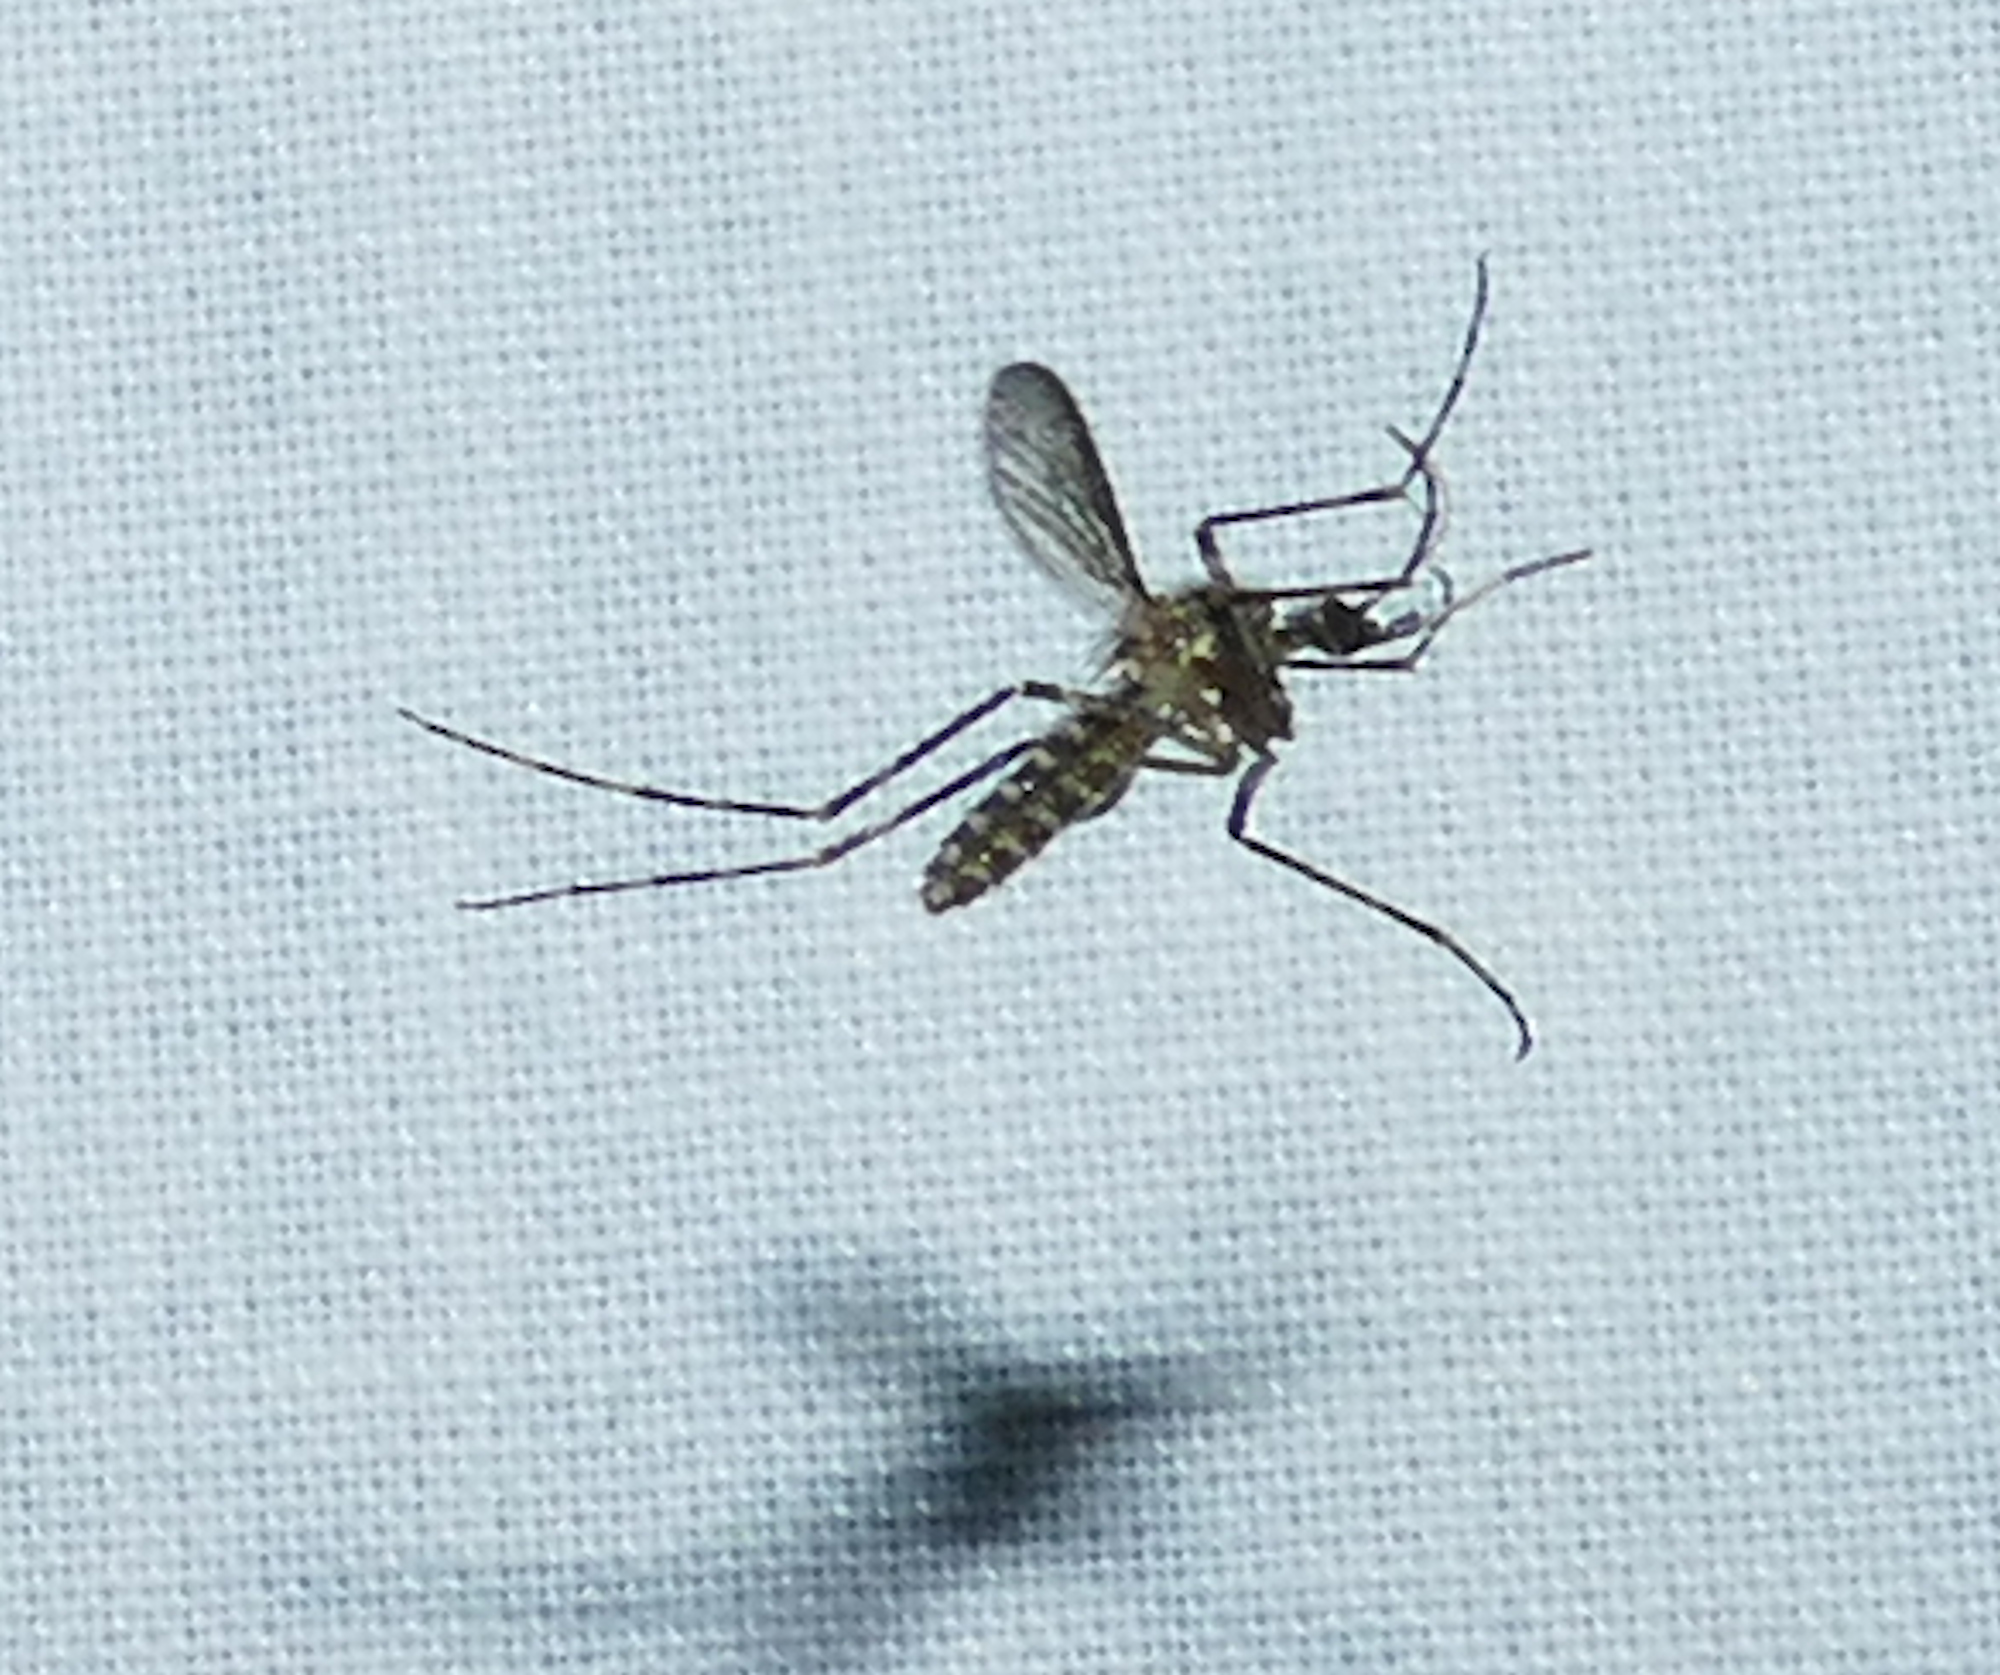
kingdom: Animalia
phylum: Arthropoda
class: Insecta
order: Diptera
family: Culicidae
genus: Coquillettidia
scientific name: Coquillettidia perturbans
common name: Cattail mosquito
